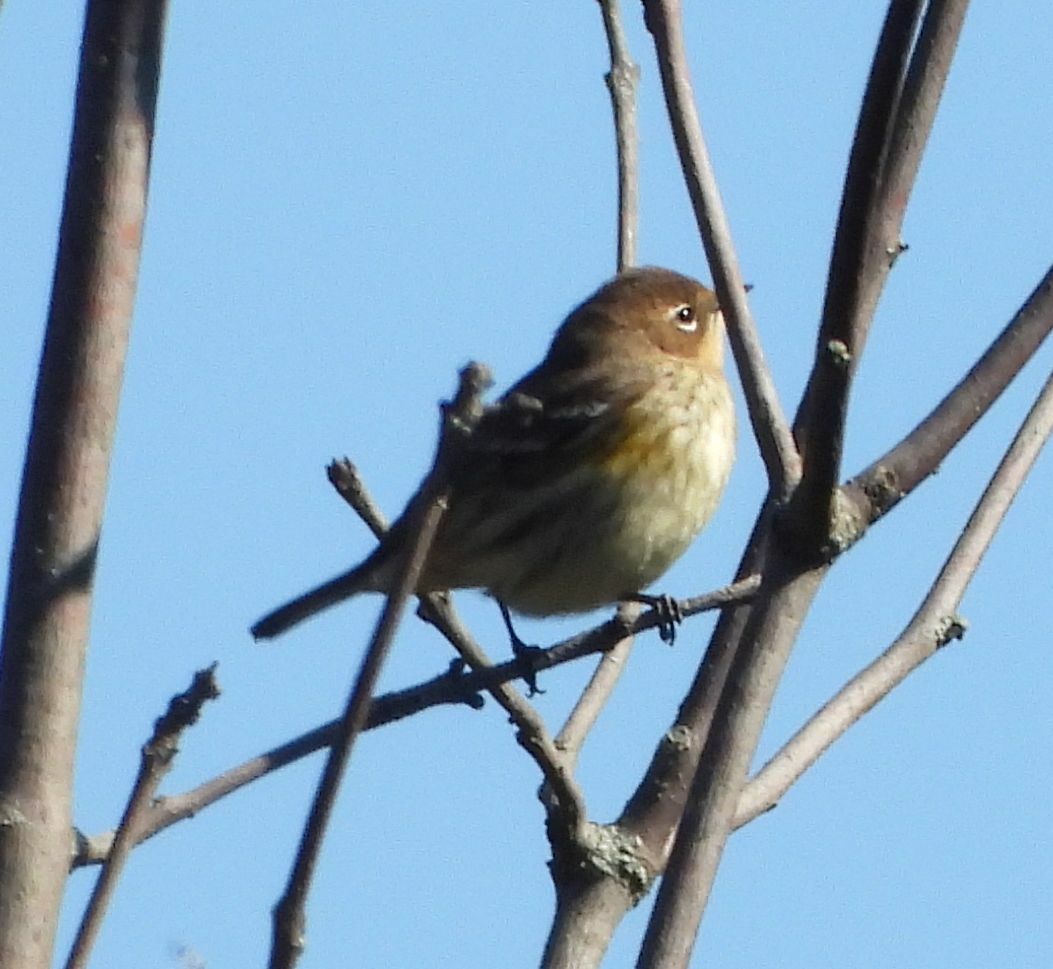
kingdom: Animalia
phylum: Chordata
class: Aves
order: Passeriformes
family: Parulidae
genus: Setophaga
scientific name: Setophaga coronata
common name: Myrtle warbler
